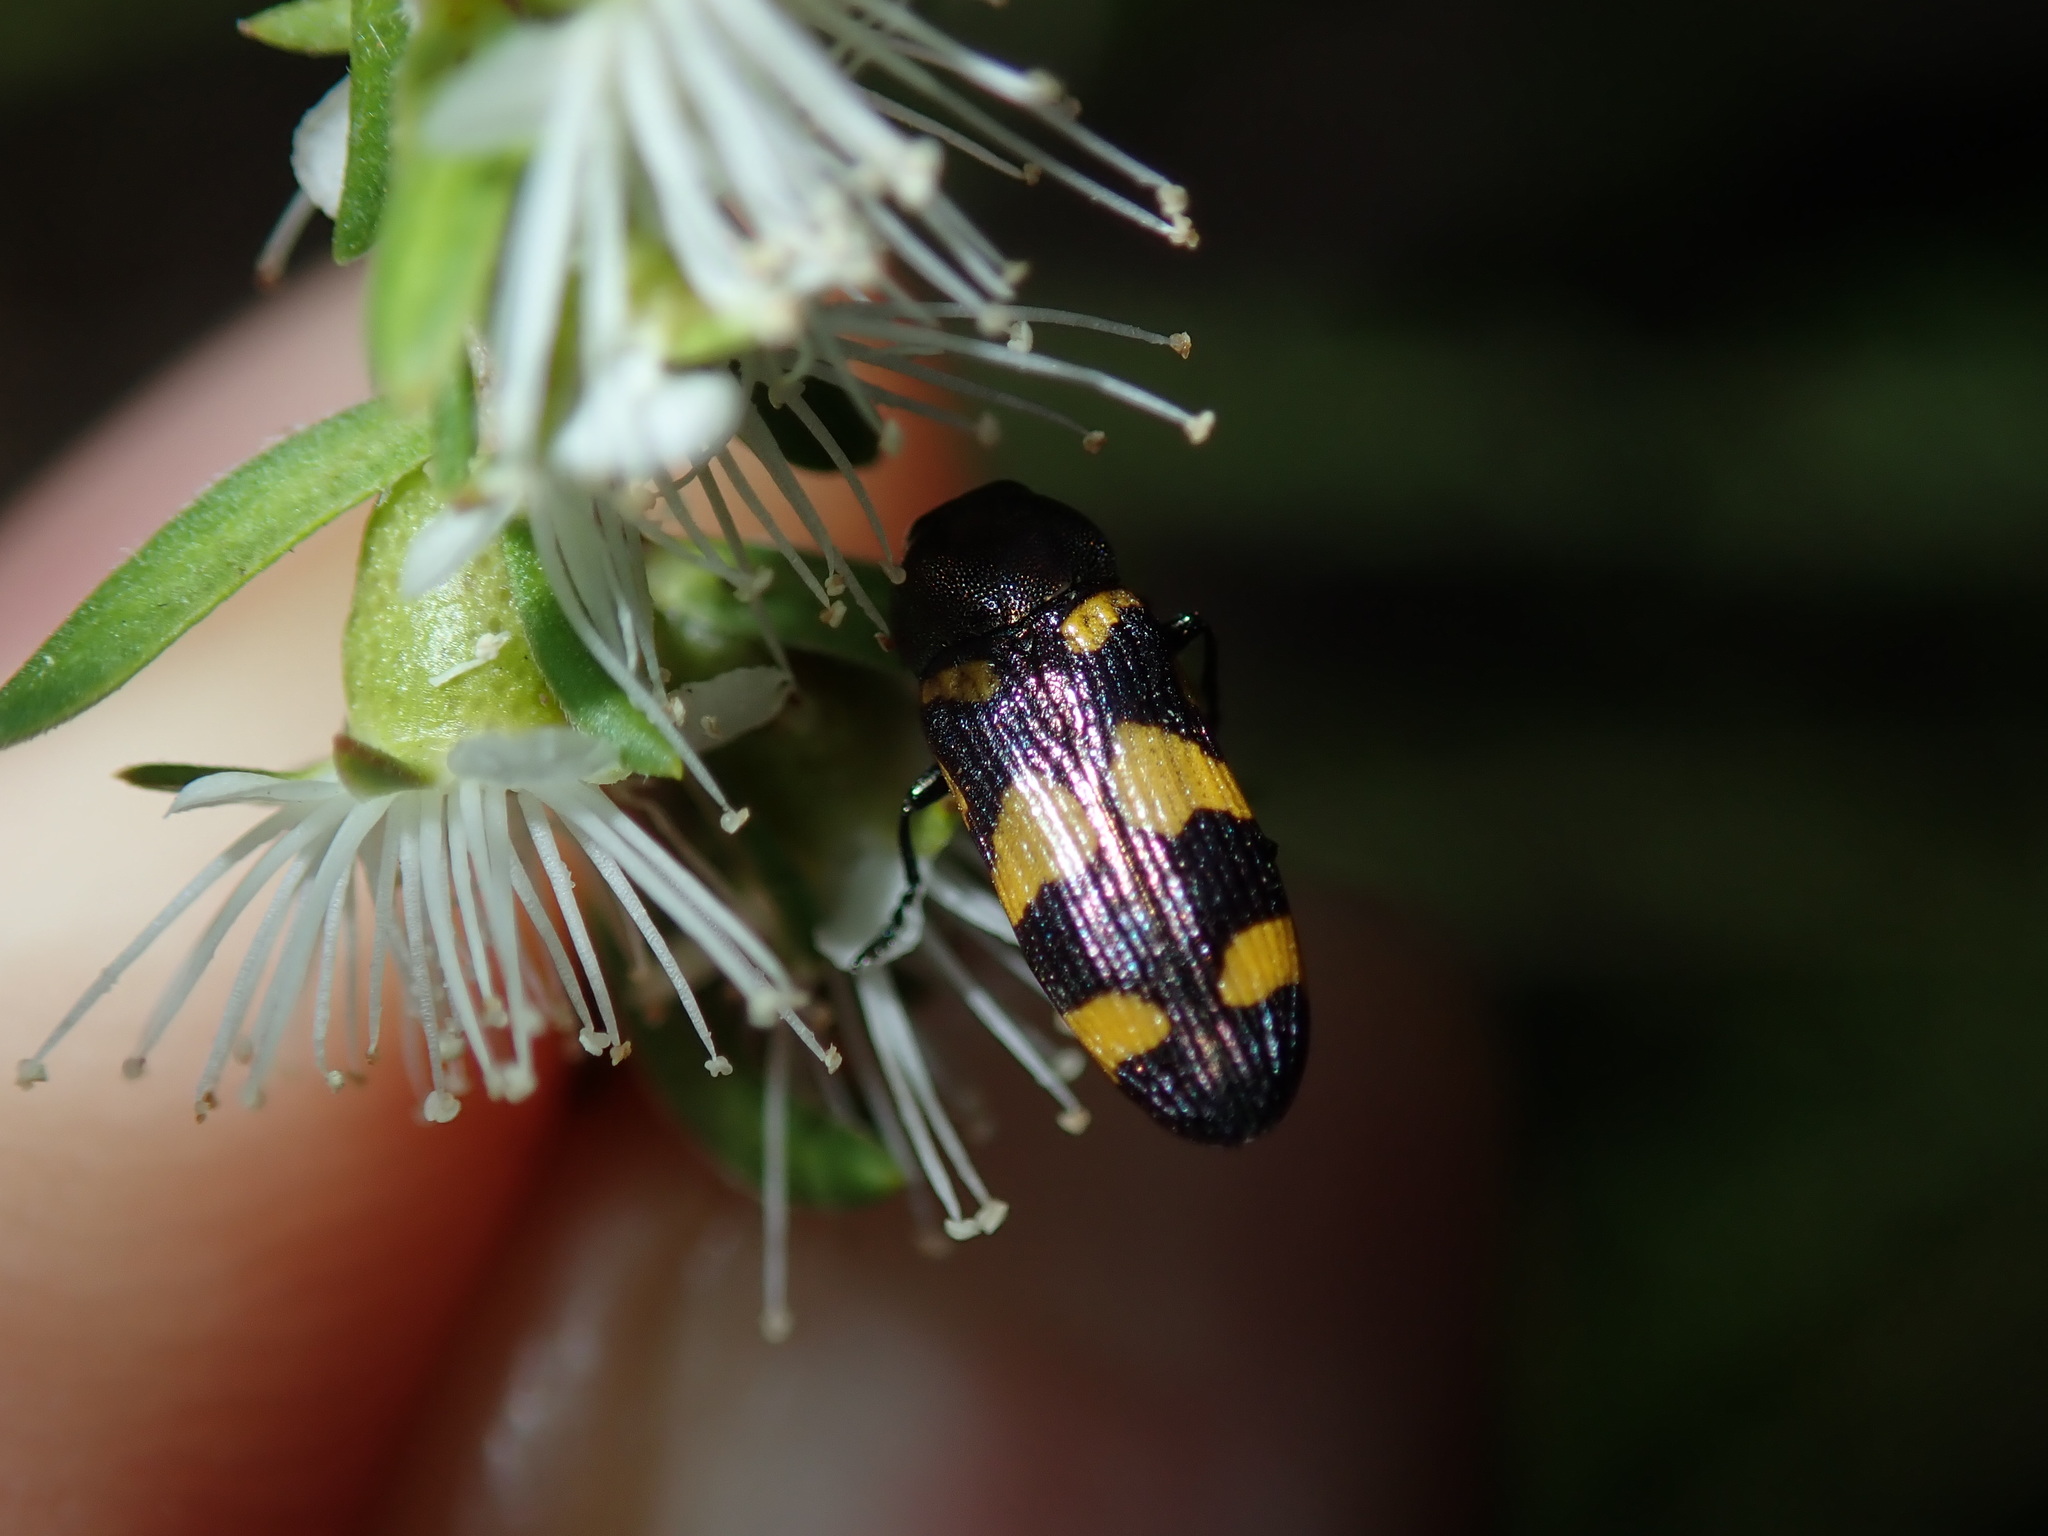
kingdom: Animalia
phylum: Arthropoda
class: Insecta
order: Coleoptera
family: Buprestidae
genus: Castiarina
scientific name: Castiarina inconspicua
